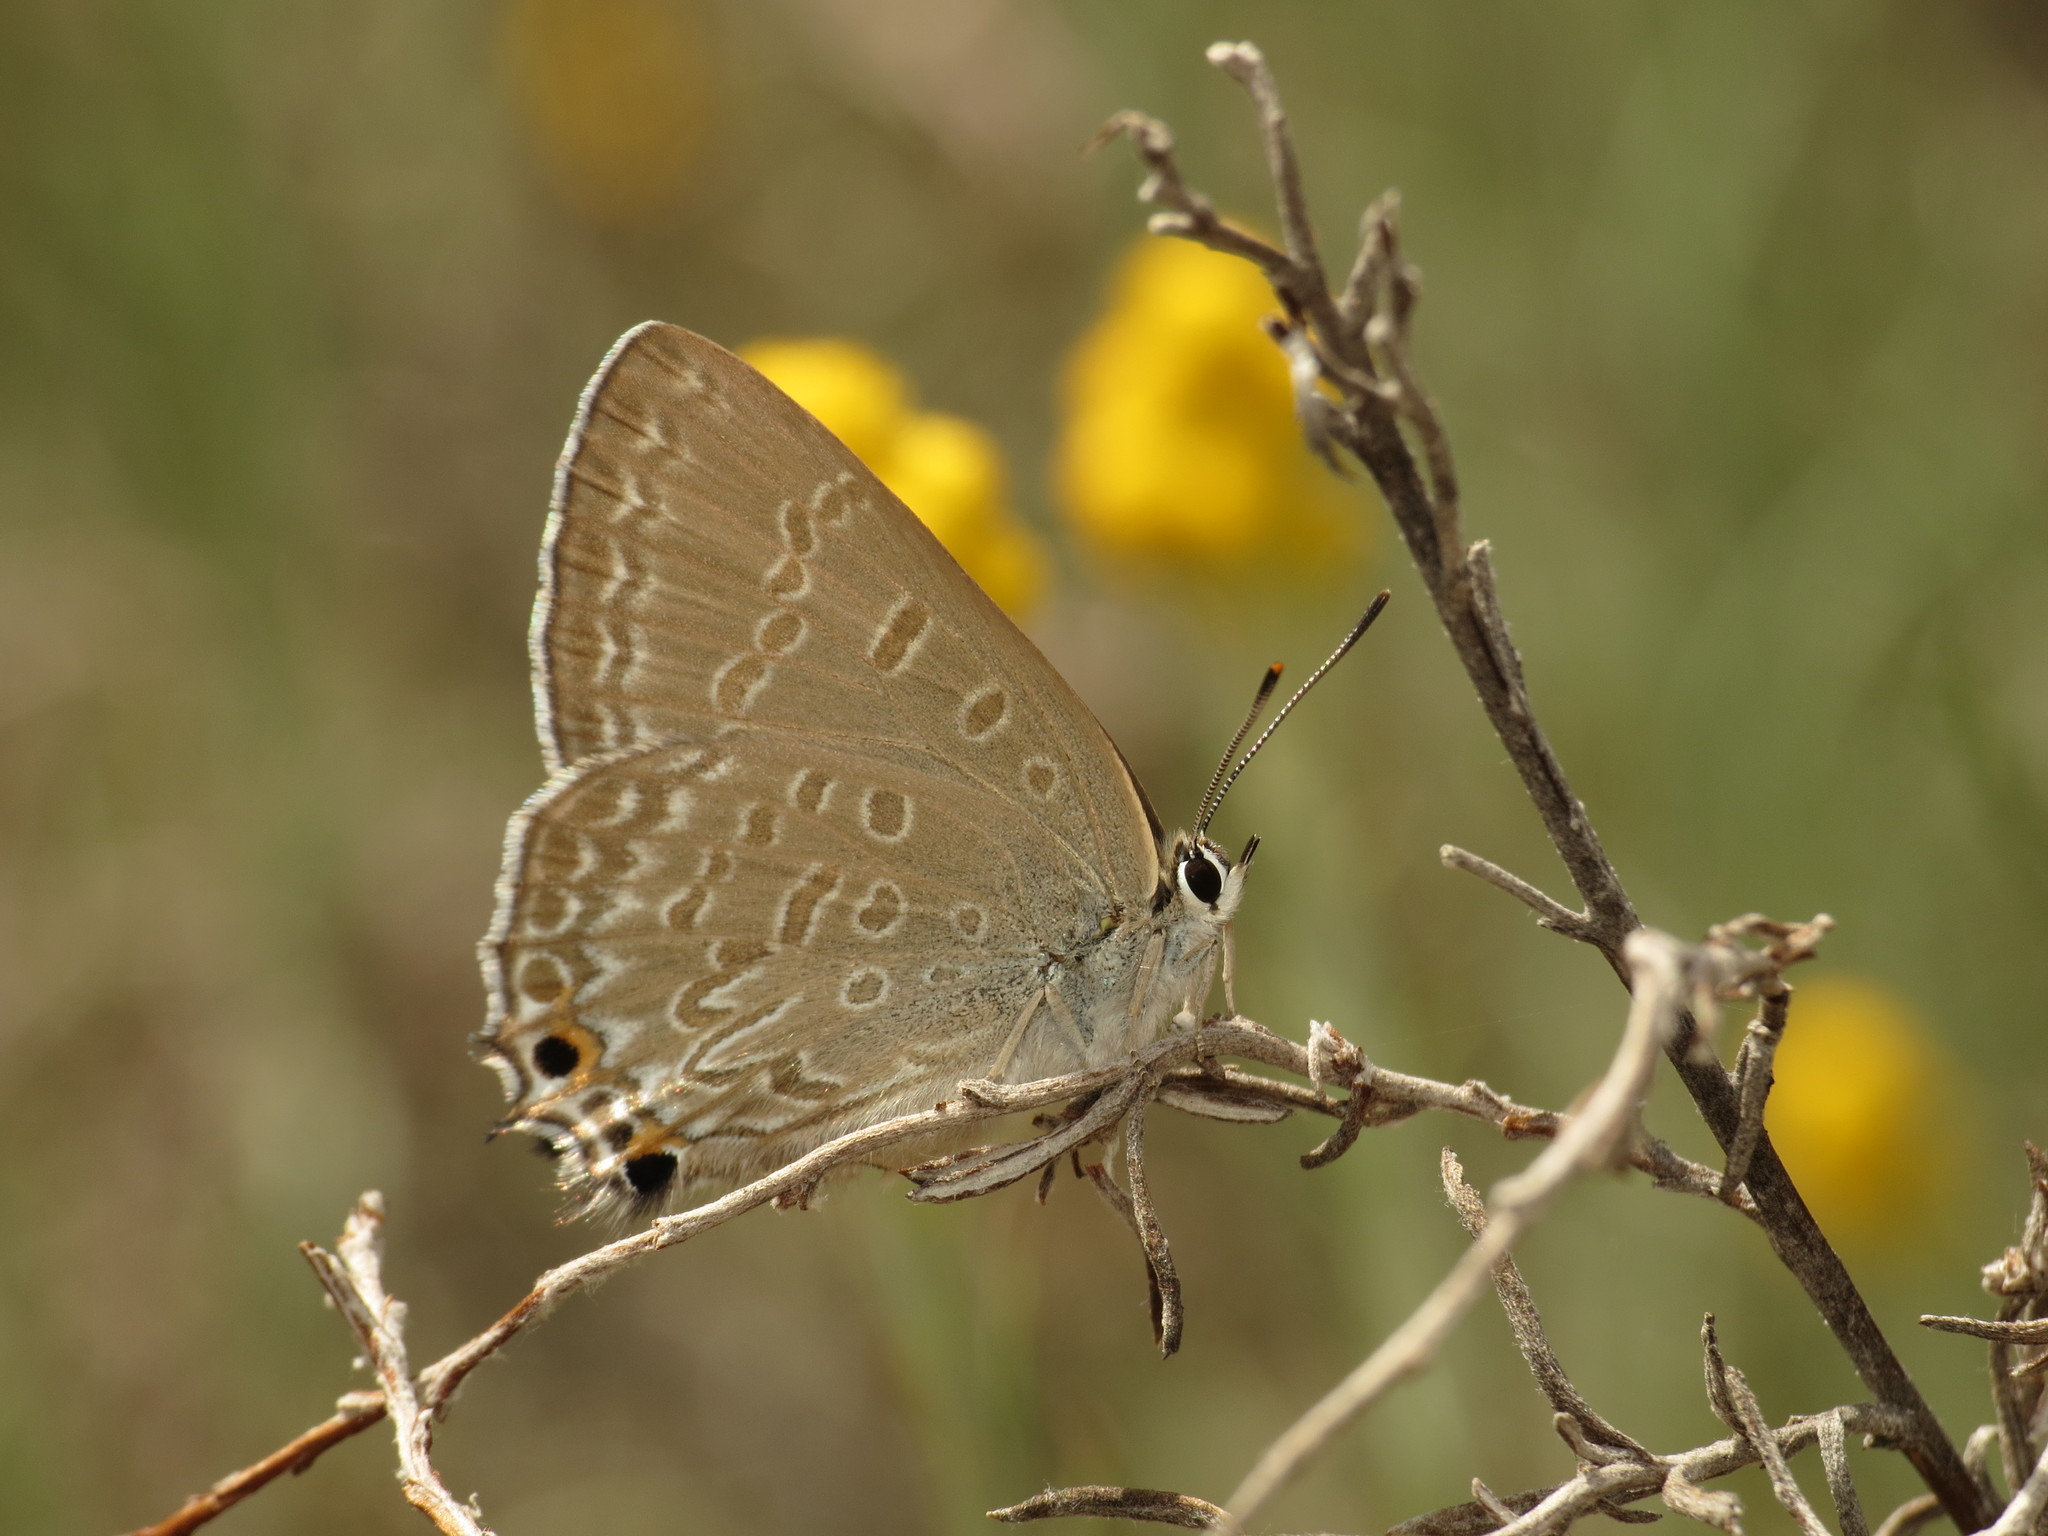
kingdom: Animalia
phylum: Arthropoda
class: Insecta
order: Lepidoptera
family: Lycaenidae
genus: Jalmenus
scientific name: Jalmenus icilius
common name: Amethyst hairstreak
